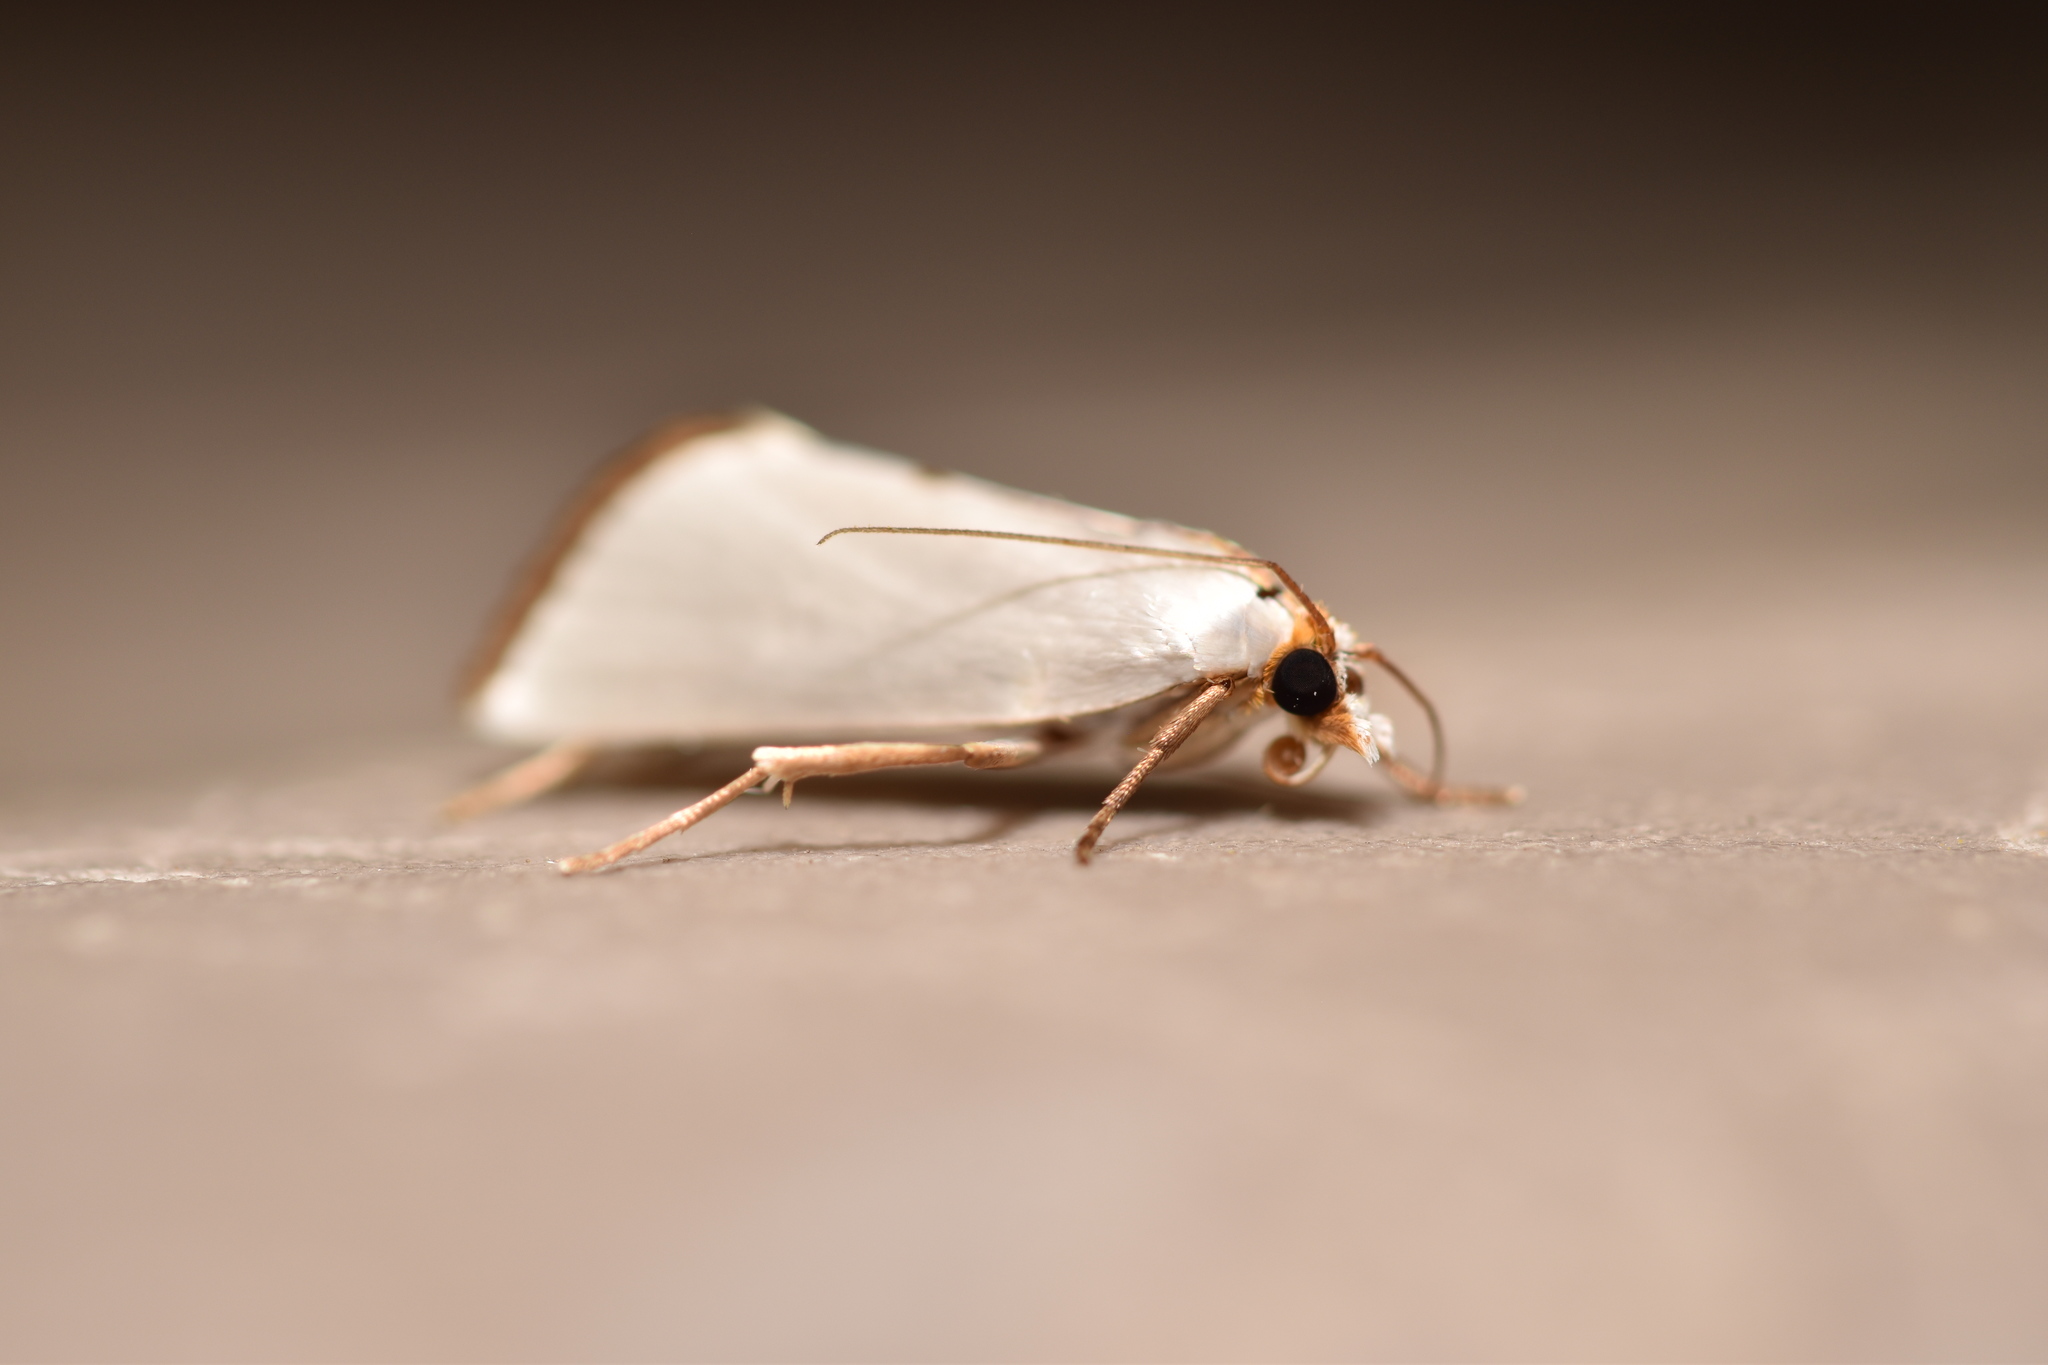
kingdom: Animalia
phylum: Arthropoda
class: Insecta
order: Lepidoptera
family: Crambidae
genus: Argyria
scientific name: Argyria nivalis
